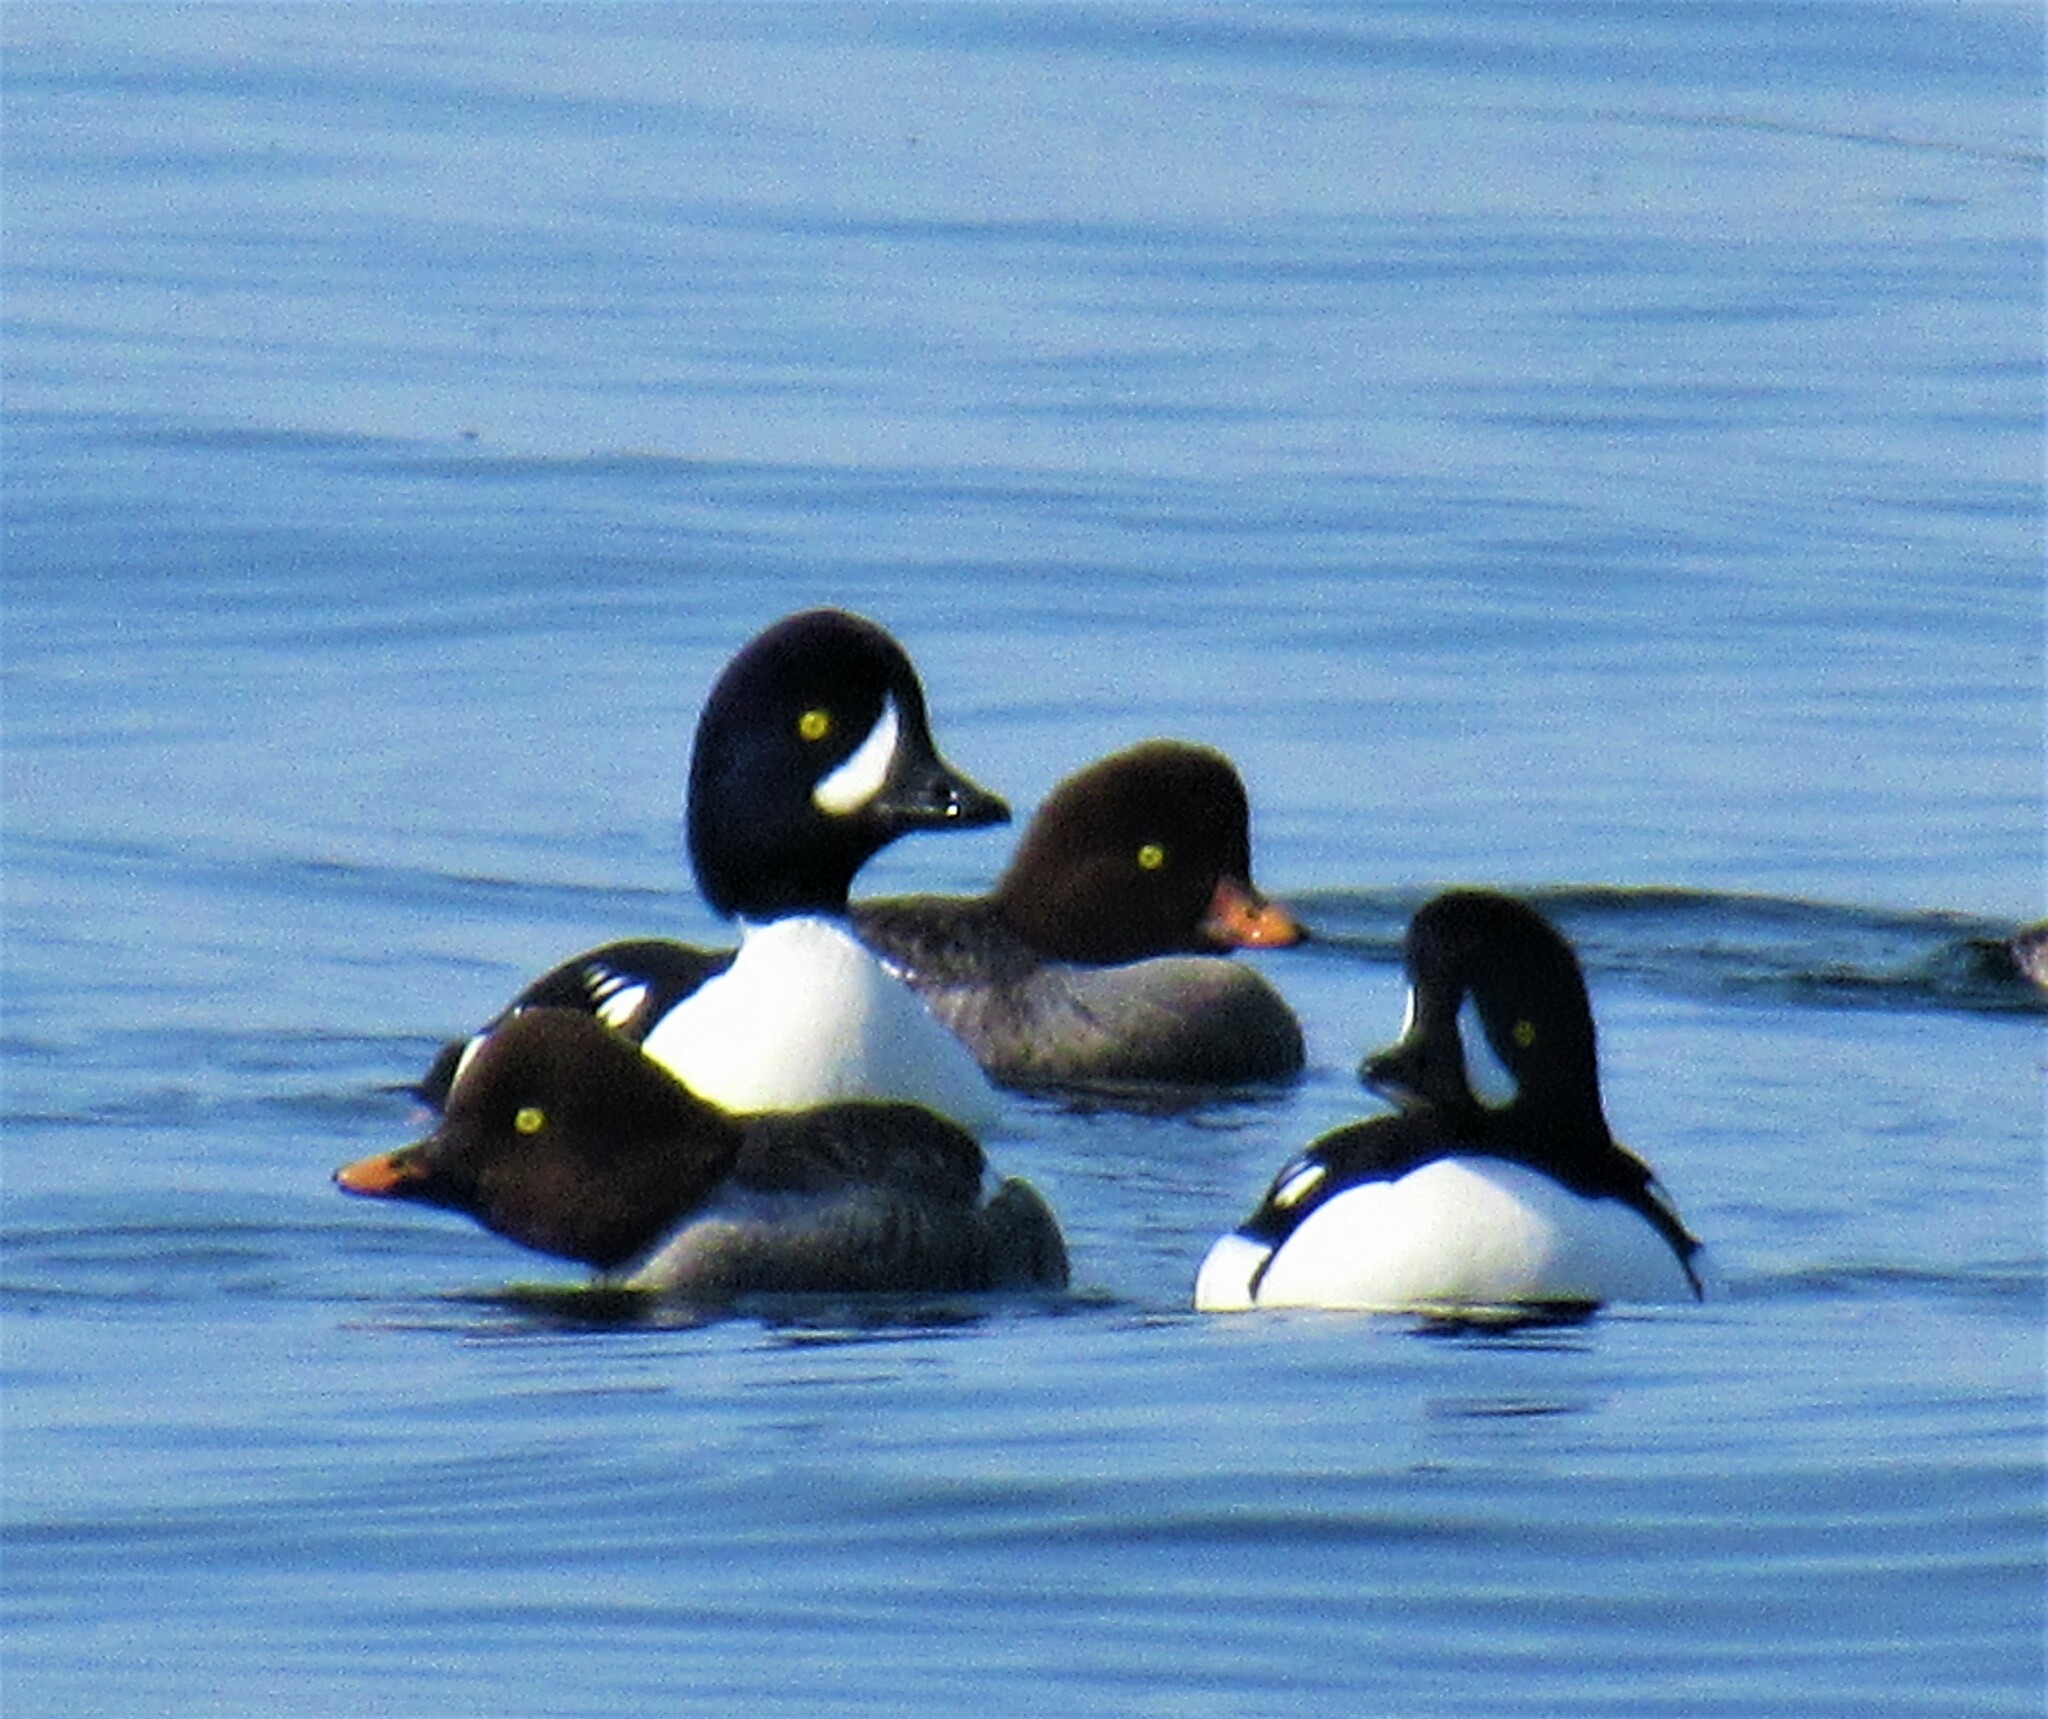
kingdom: Animalia
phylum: Chordata
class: Aves
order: Anseriformes
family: Anatidae
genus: Bucephala
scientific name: Bucephala islandica
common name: Barrow's goldeneye
